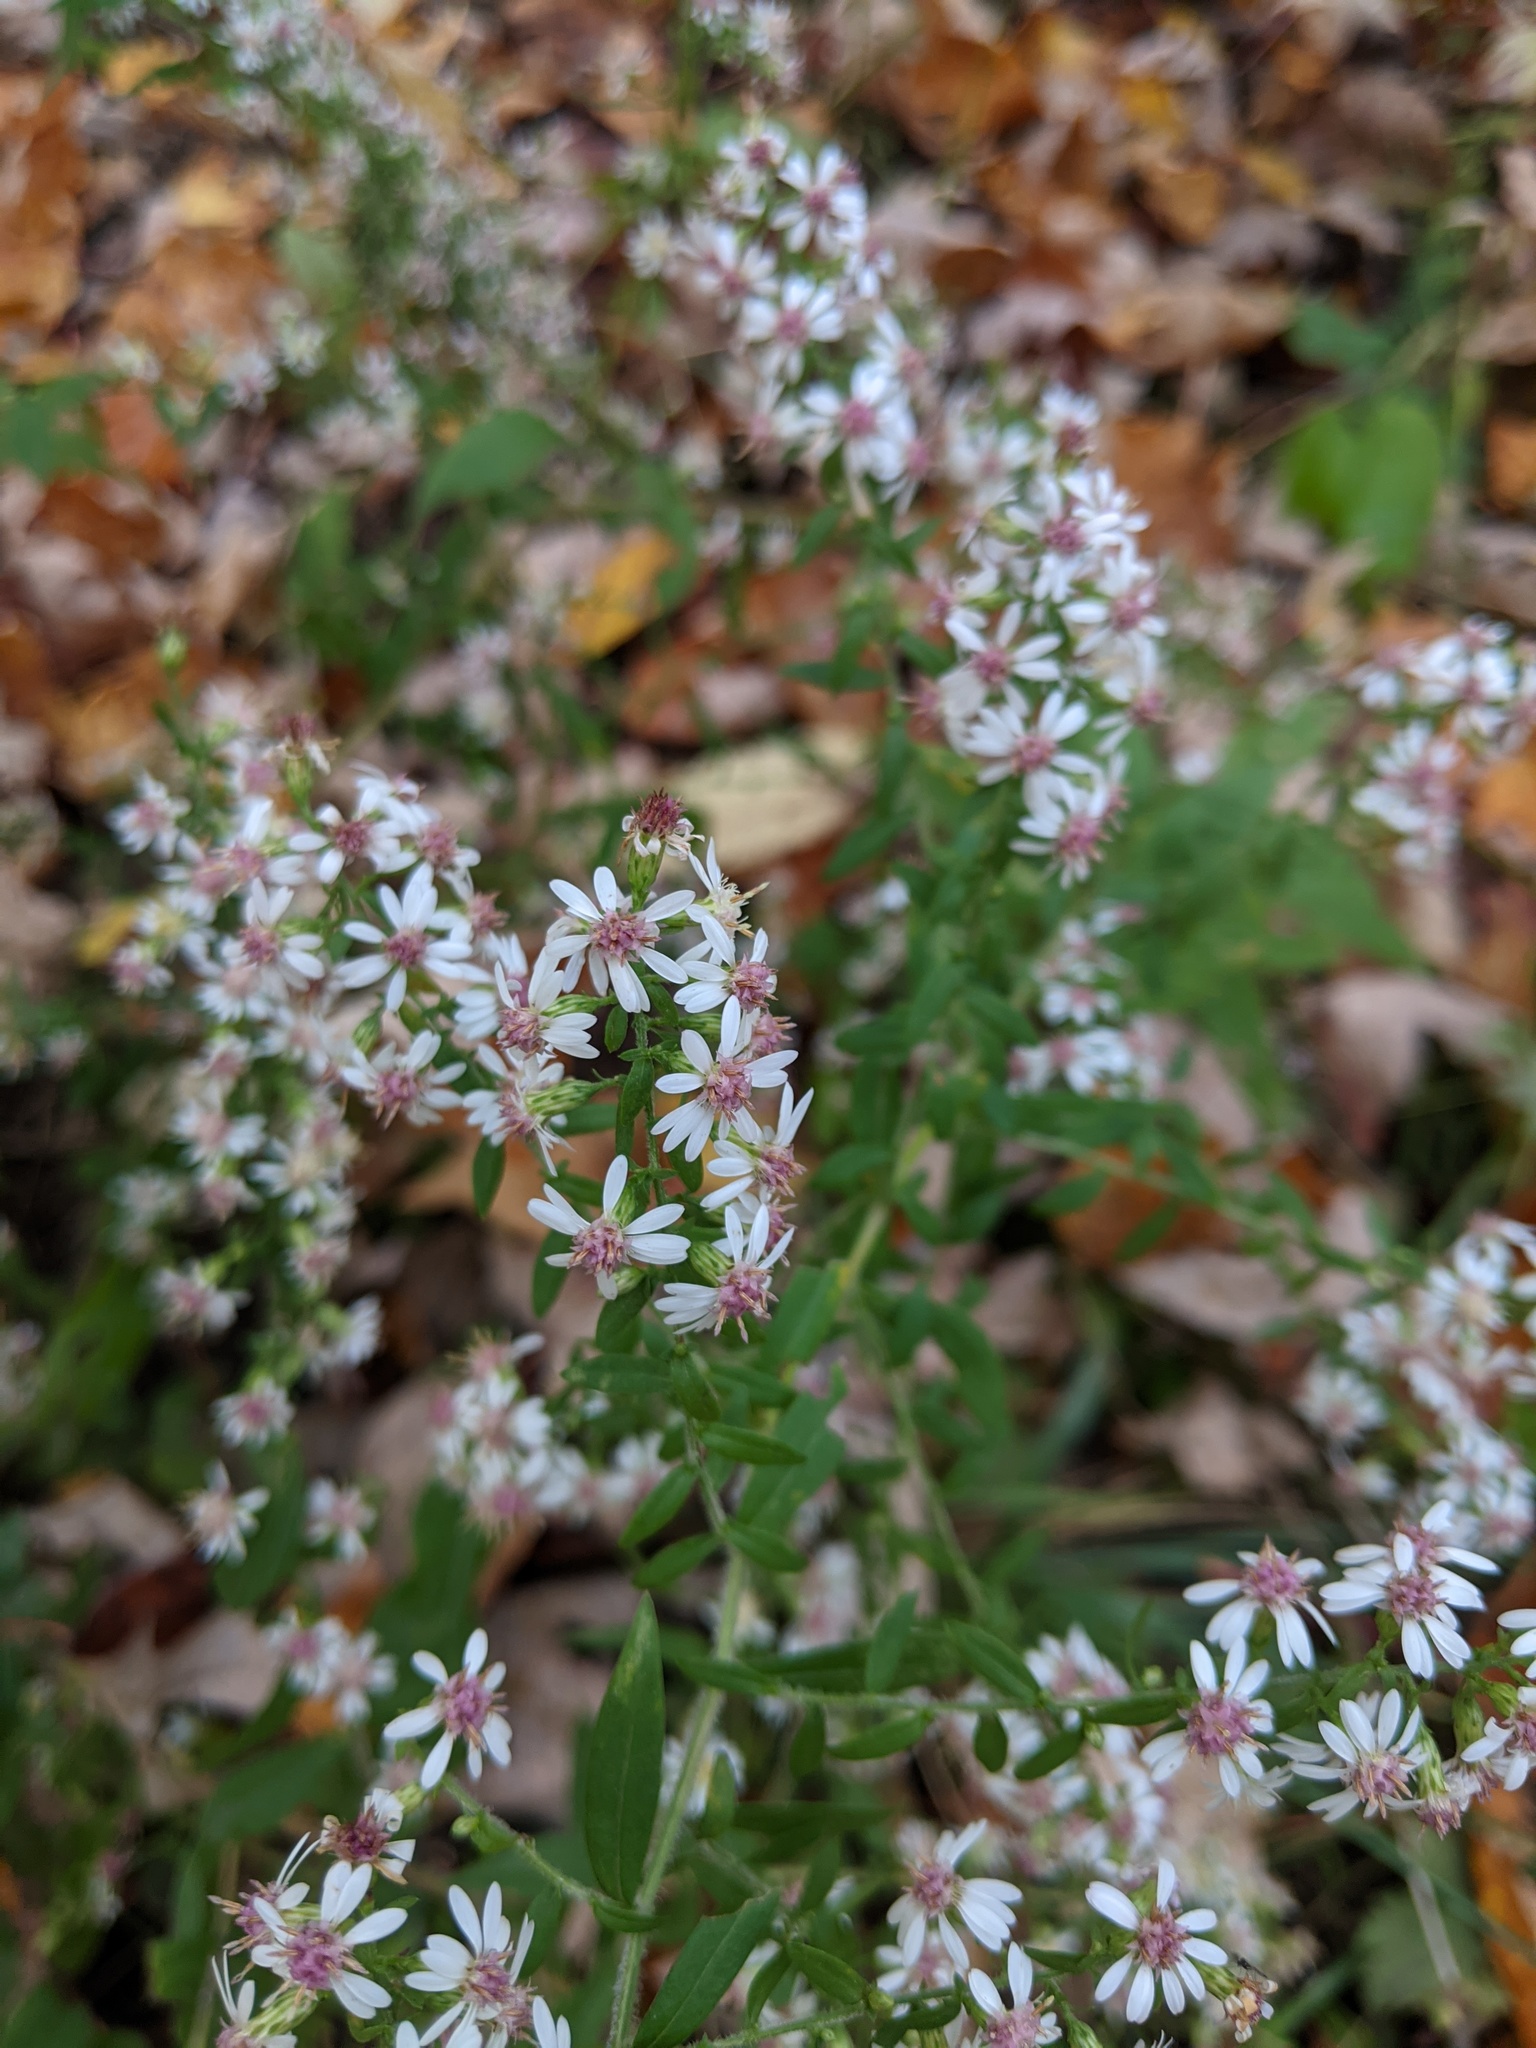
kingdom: Plantae
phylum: Tracheophyta
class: Magnoliopsida
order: Asterales
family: Asteraceae
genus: Symphyotrichum
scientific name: Symphyotrichum lateriflorum
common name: Calico aster
